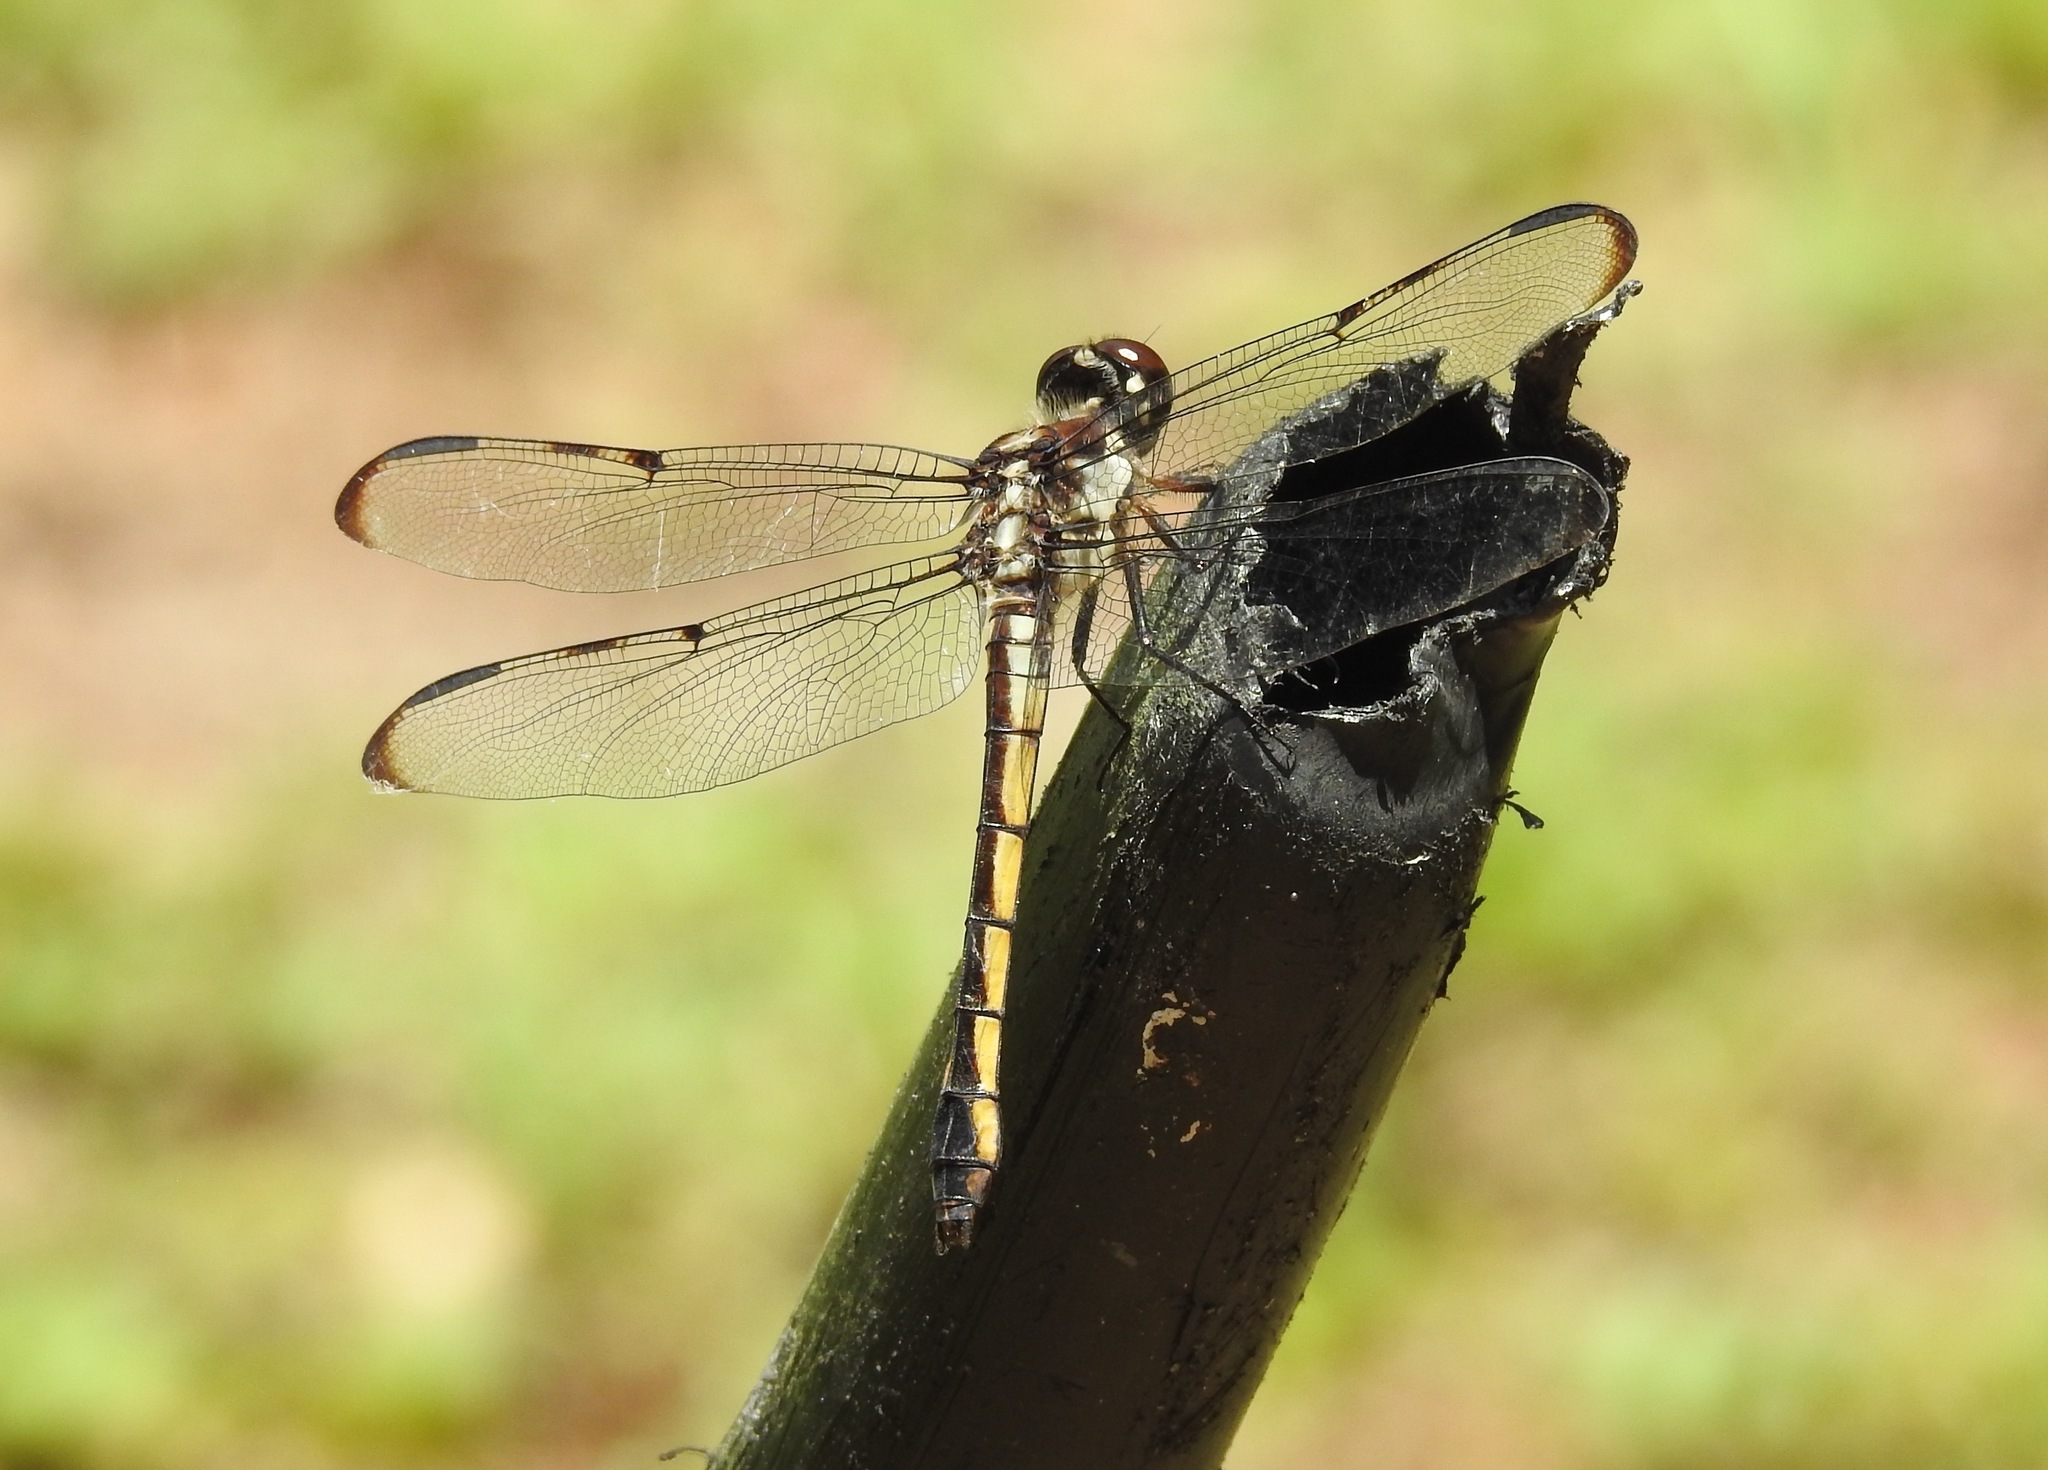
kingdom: Animalia
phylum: Arthropoda
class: Insecta
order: Odonata
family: Libellulidae
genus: Libellula
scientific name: Libellula vibrans
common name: Great blue skimmer
